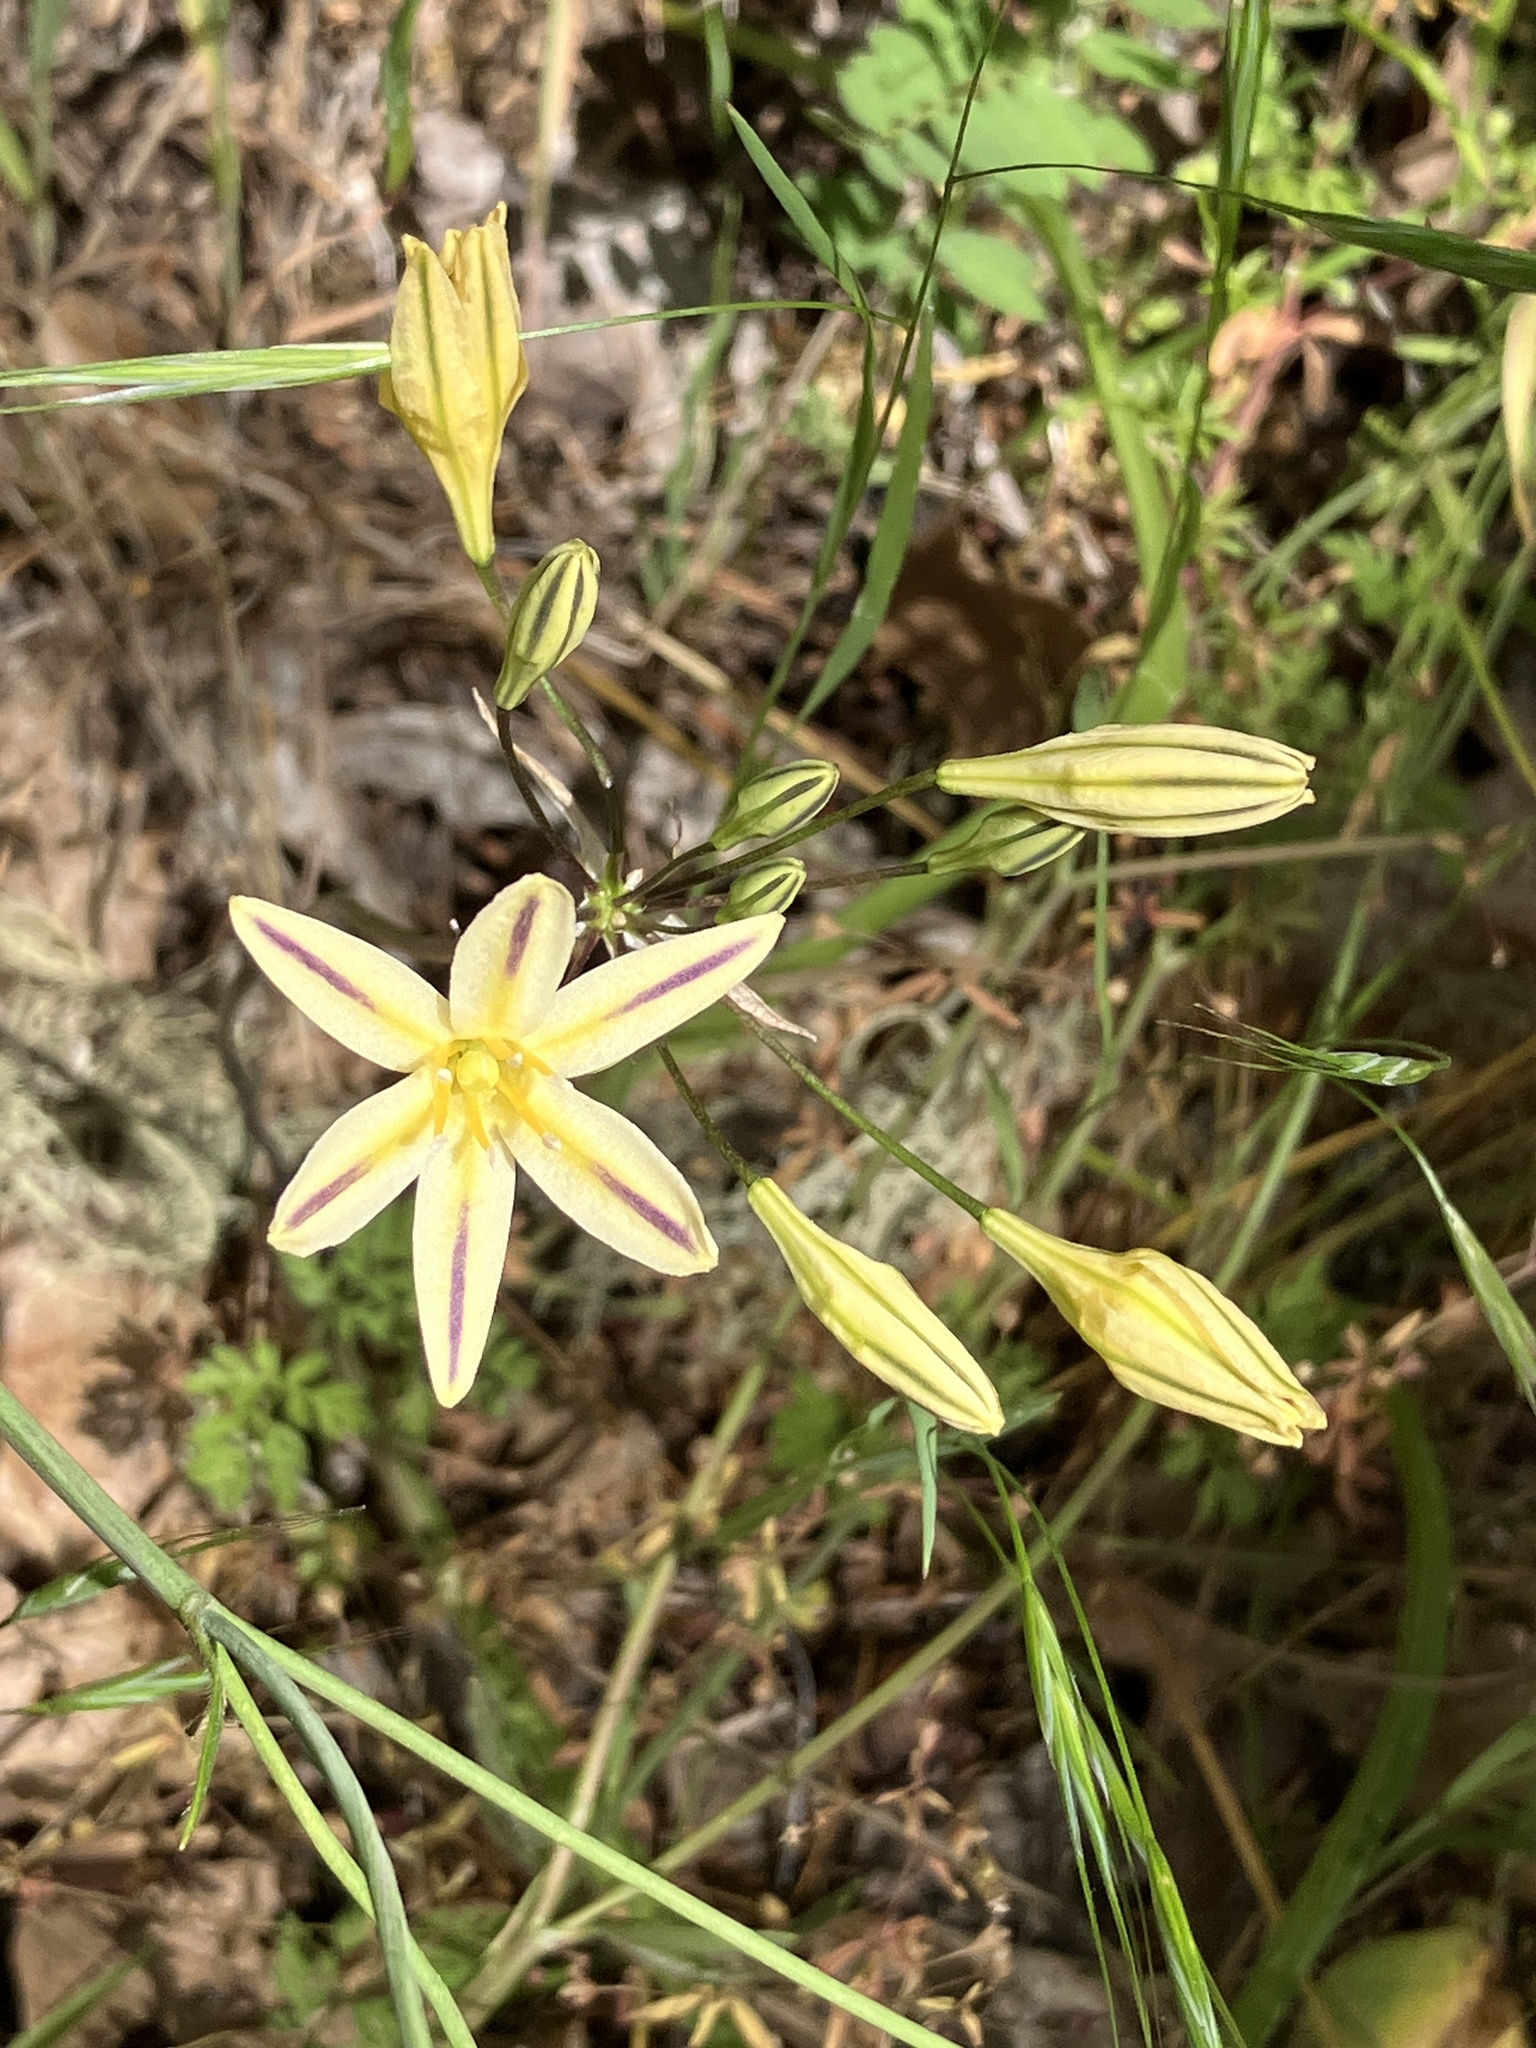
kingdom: Plantae
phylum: Tracheophyta
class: Liliopsida
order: Asparagales
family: Asparagaceae
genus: Triteleia
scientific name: Triteleia hendersonii
